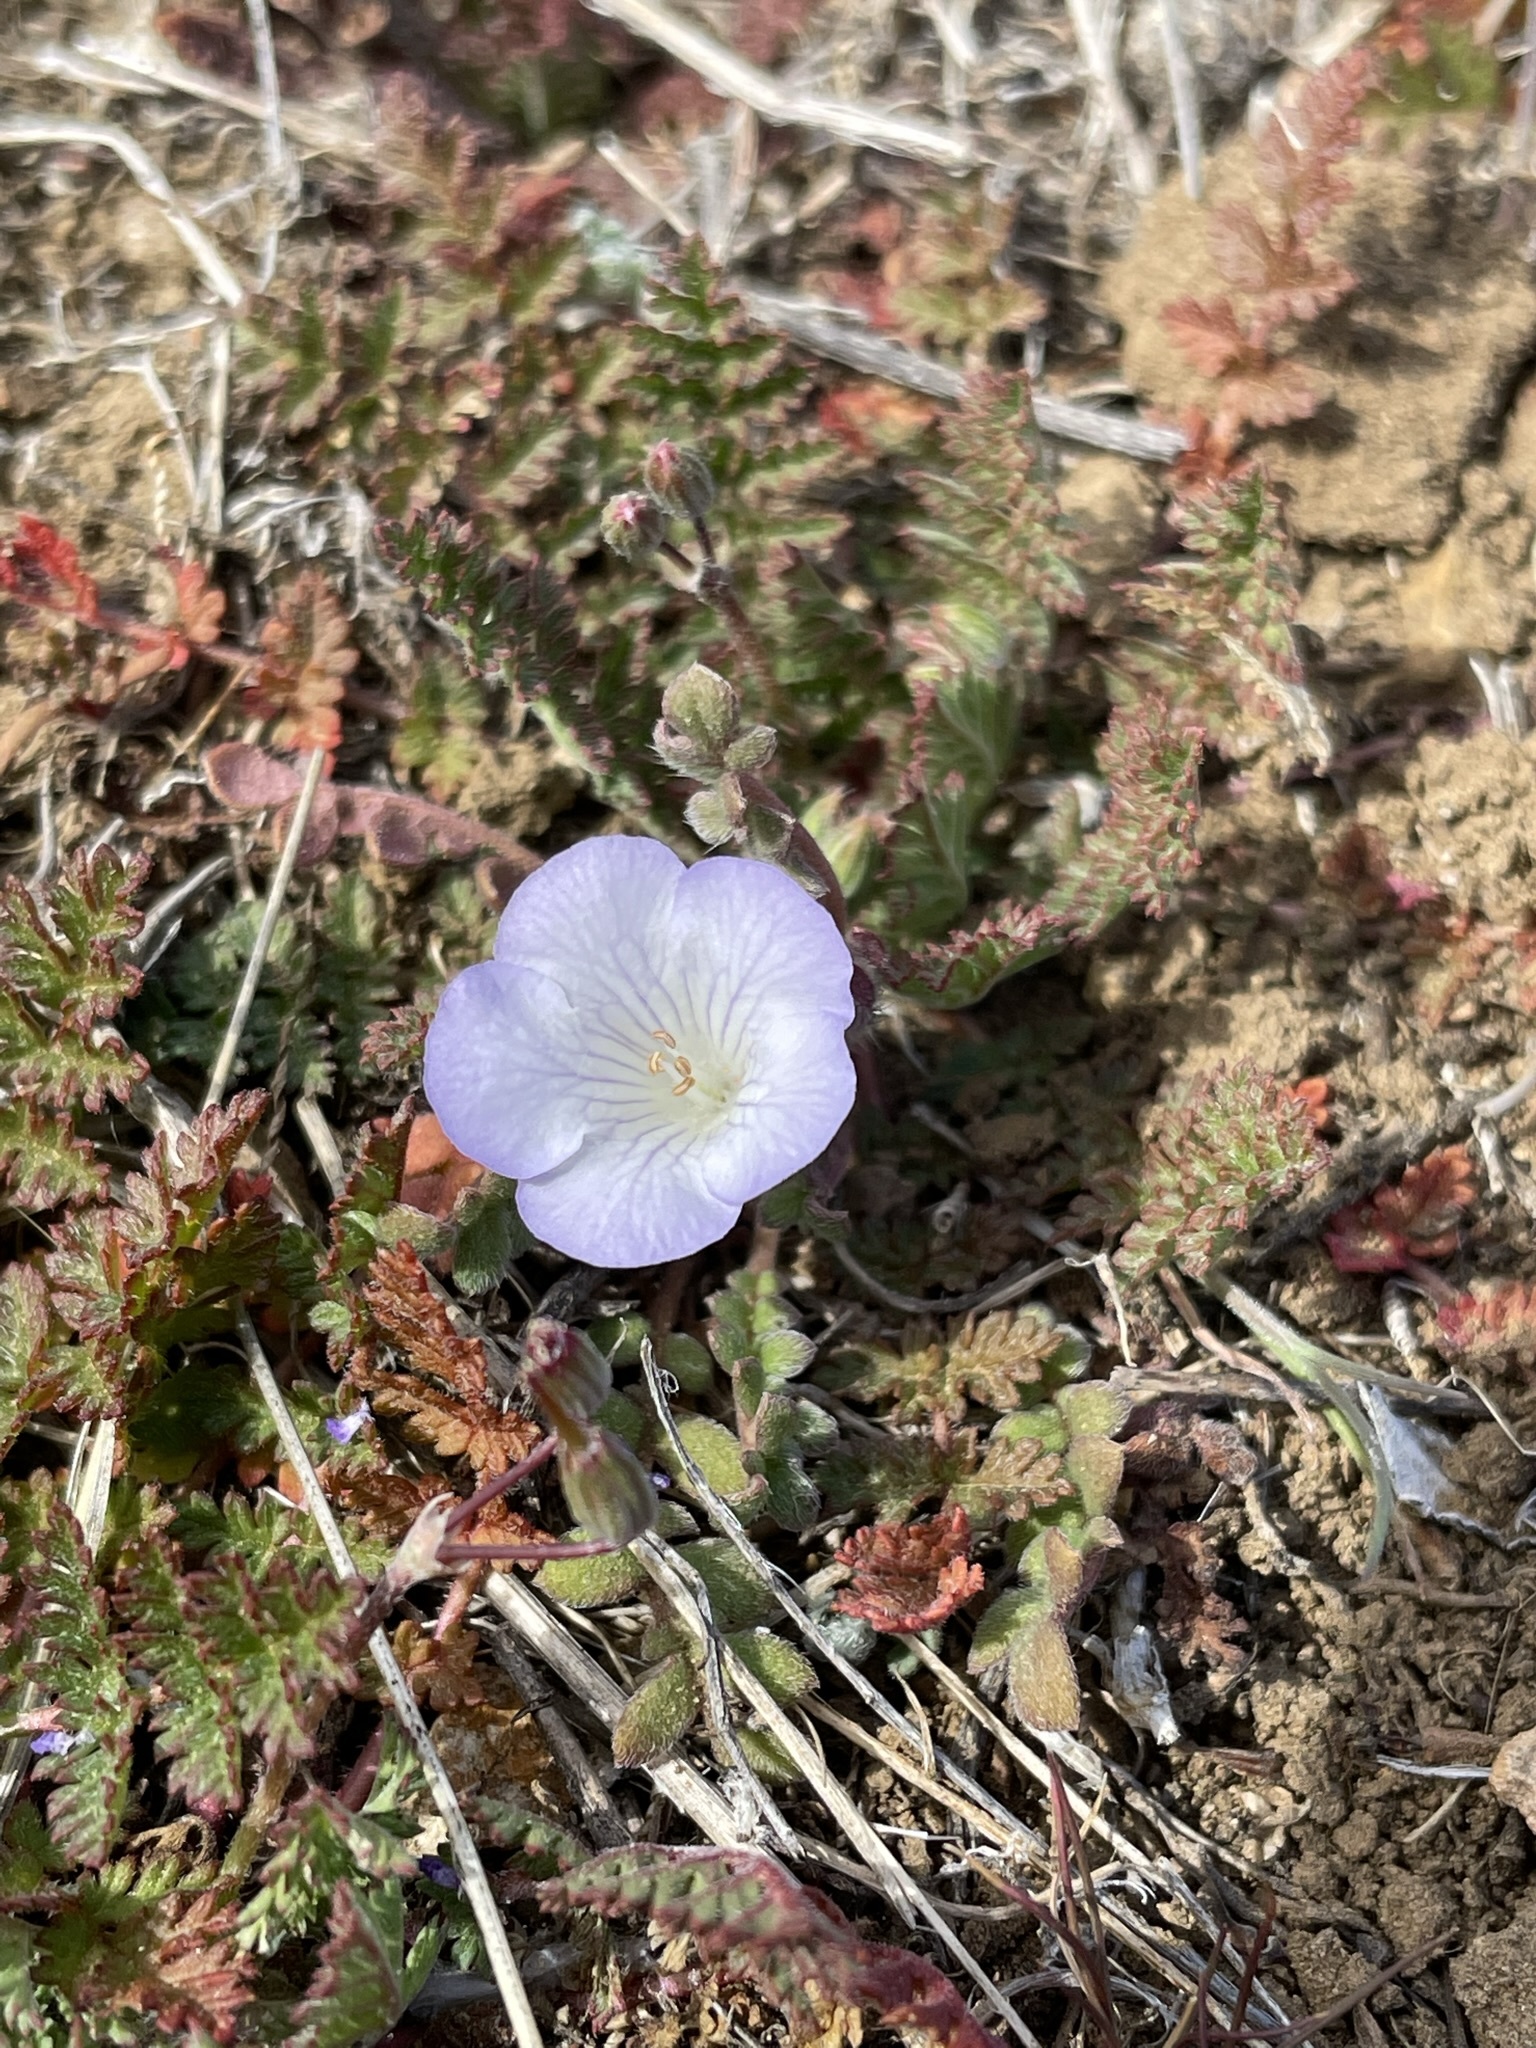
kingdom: Plantae
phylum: Tracheophyta
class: Magnoliopsida
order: Boraginales
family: Hydrophyllaceae
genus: Phacelia
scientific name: Phacelia douglasii
